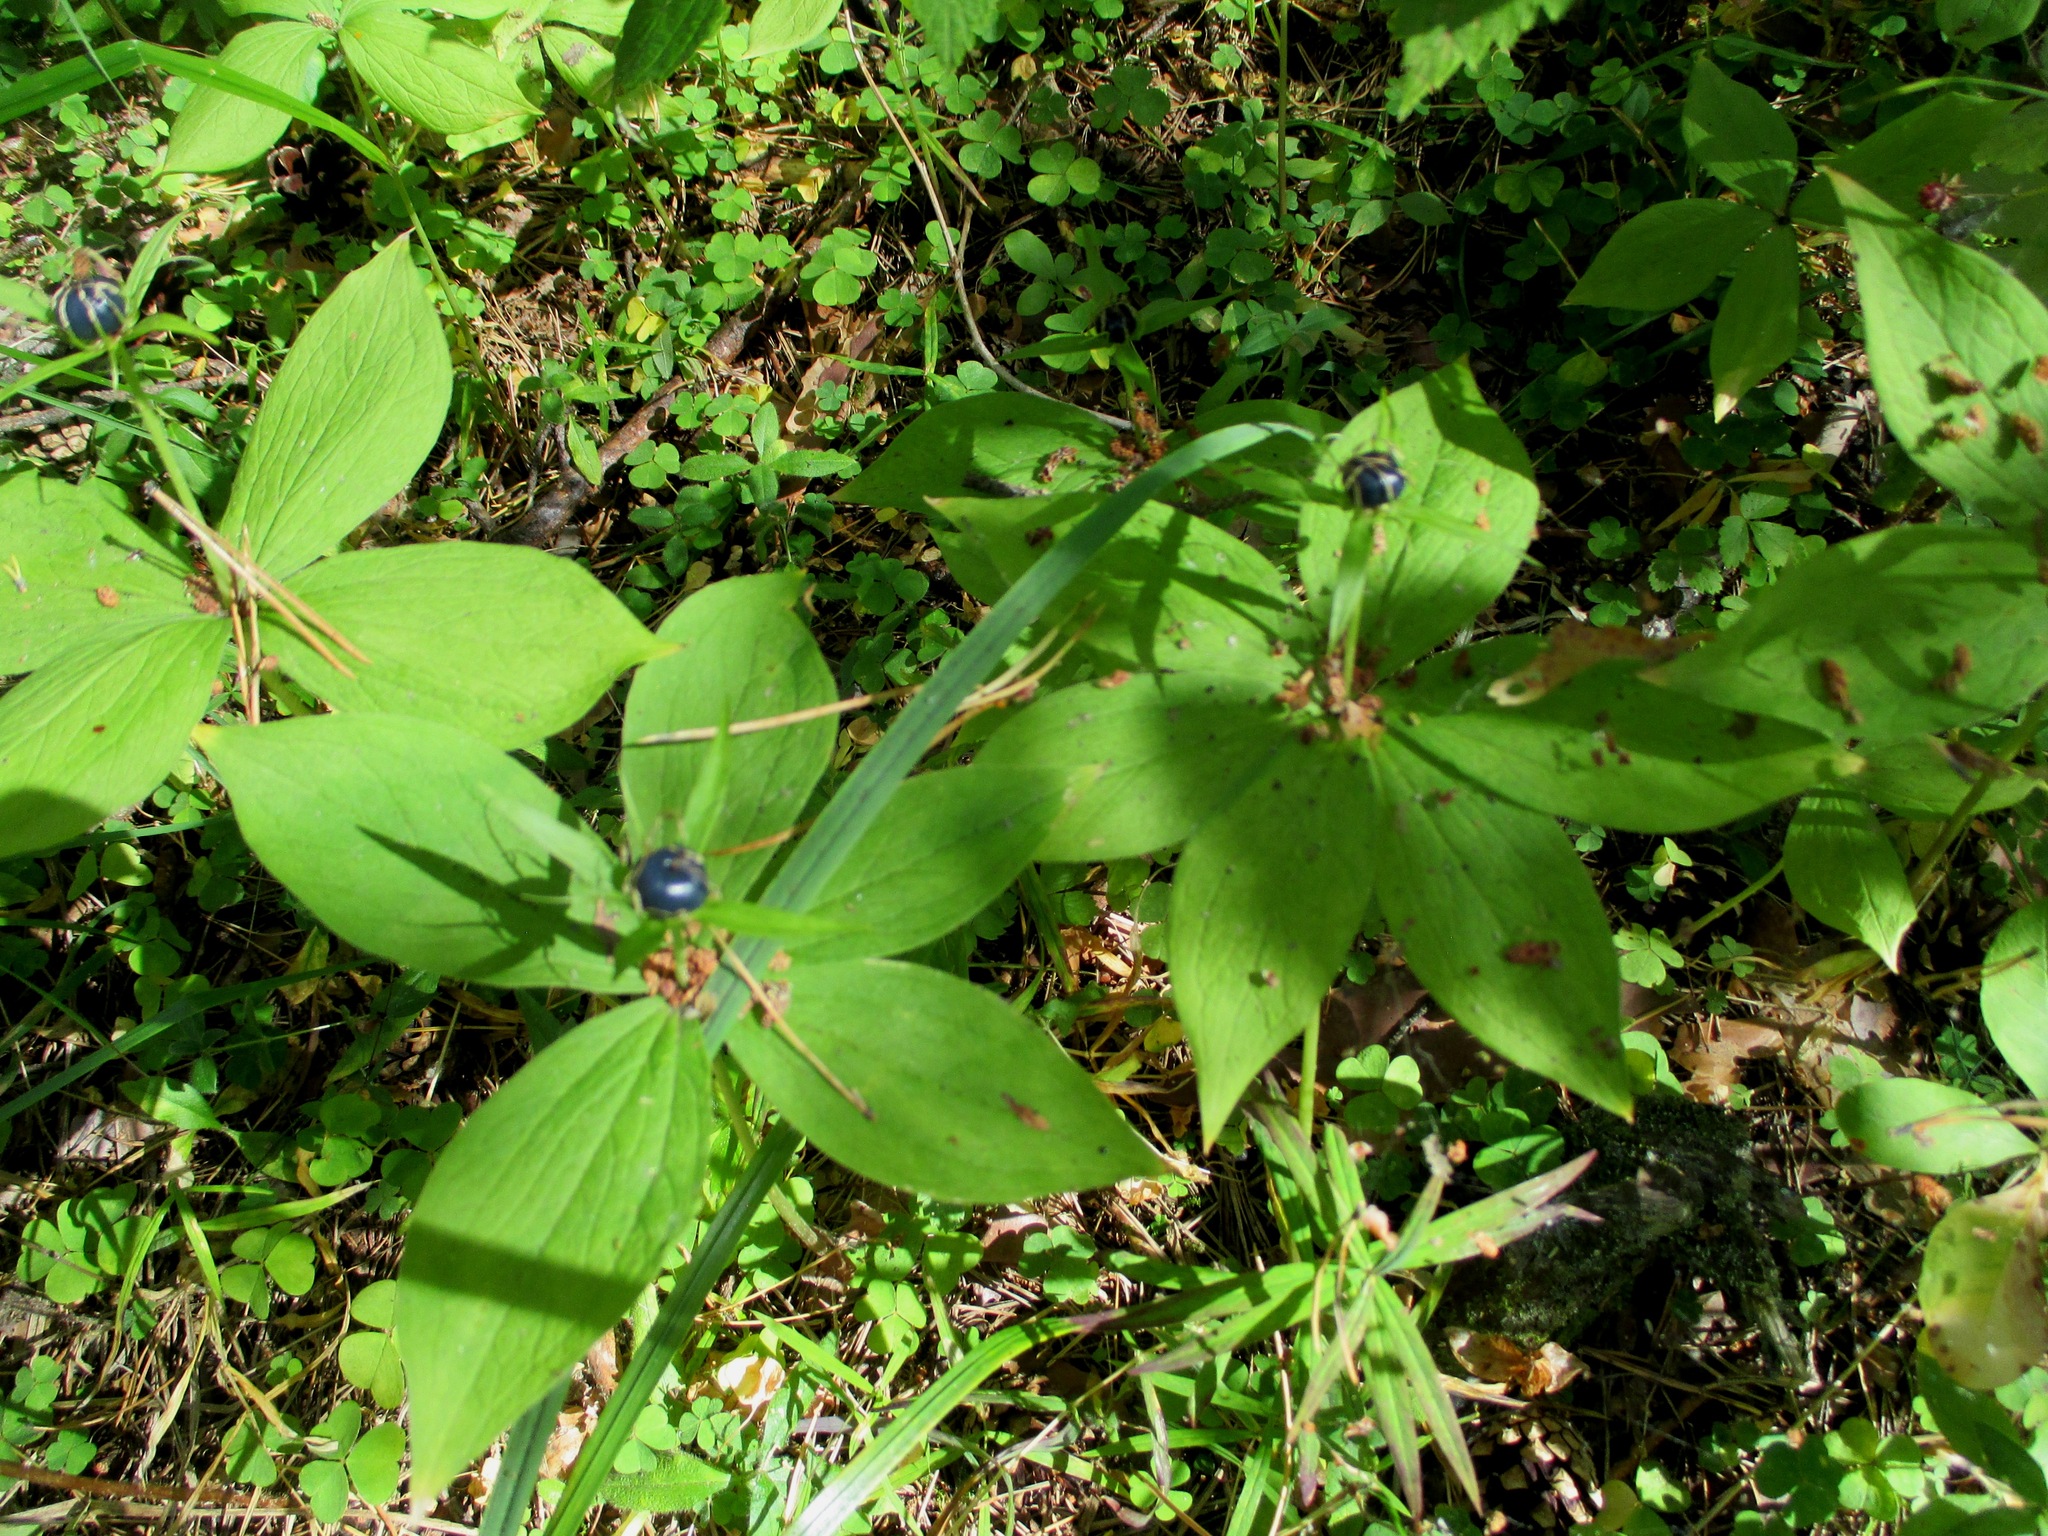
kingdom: Plantae
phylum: Tracheophyta
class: Liliopsida
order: Liliales
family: Melanthiaceae
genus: Paris
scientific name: Paris quadrifolia
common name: Herb-paris
